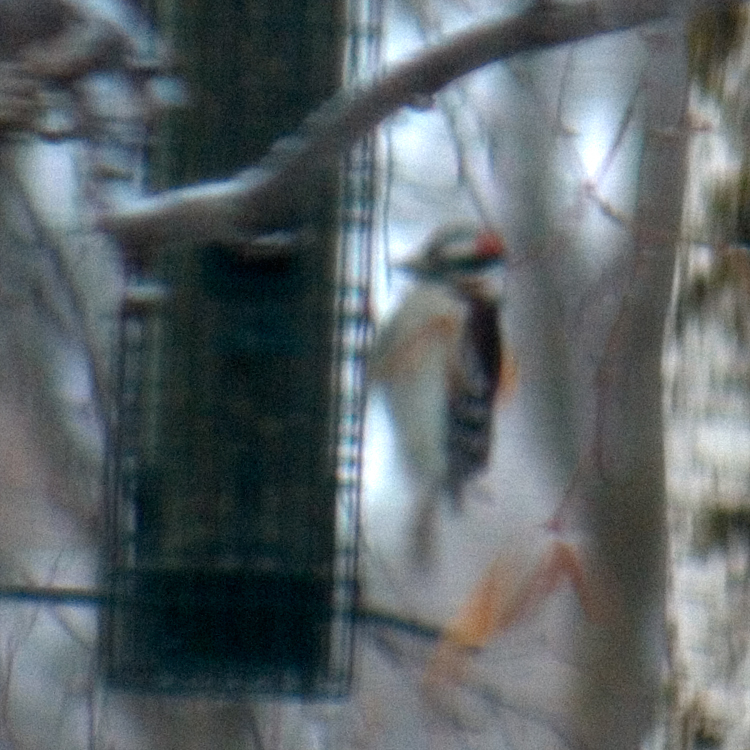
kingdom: Animalia
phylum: Chordata
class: Aves
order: Piciformes
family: Picidae
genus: Dryobates
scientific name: Dryobates pubescens
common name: Downy woodpecker
